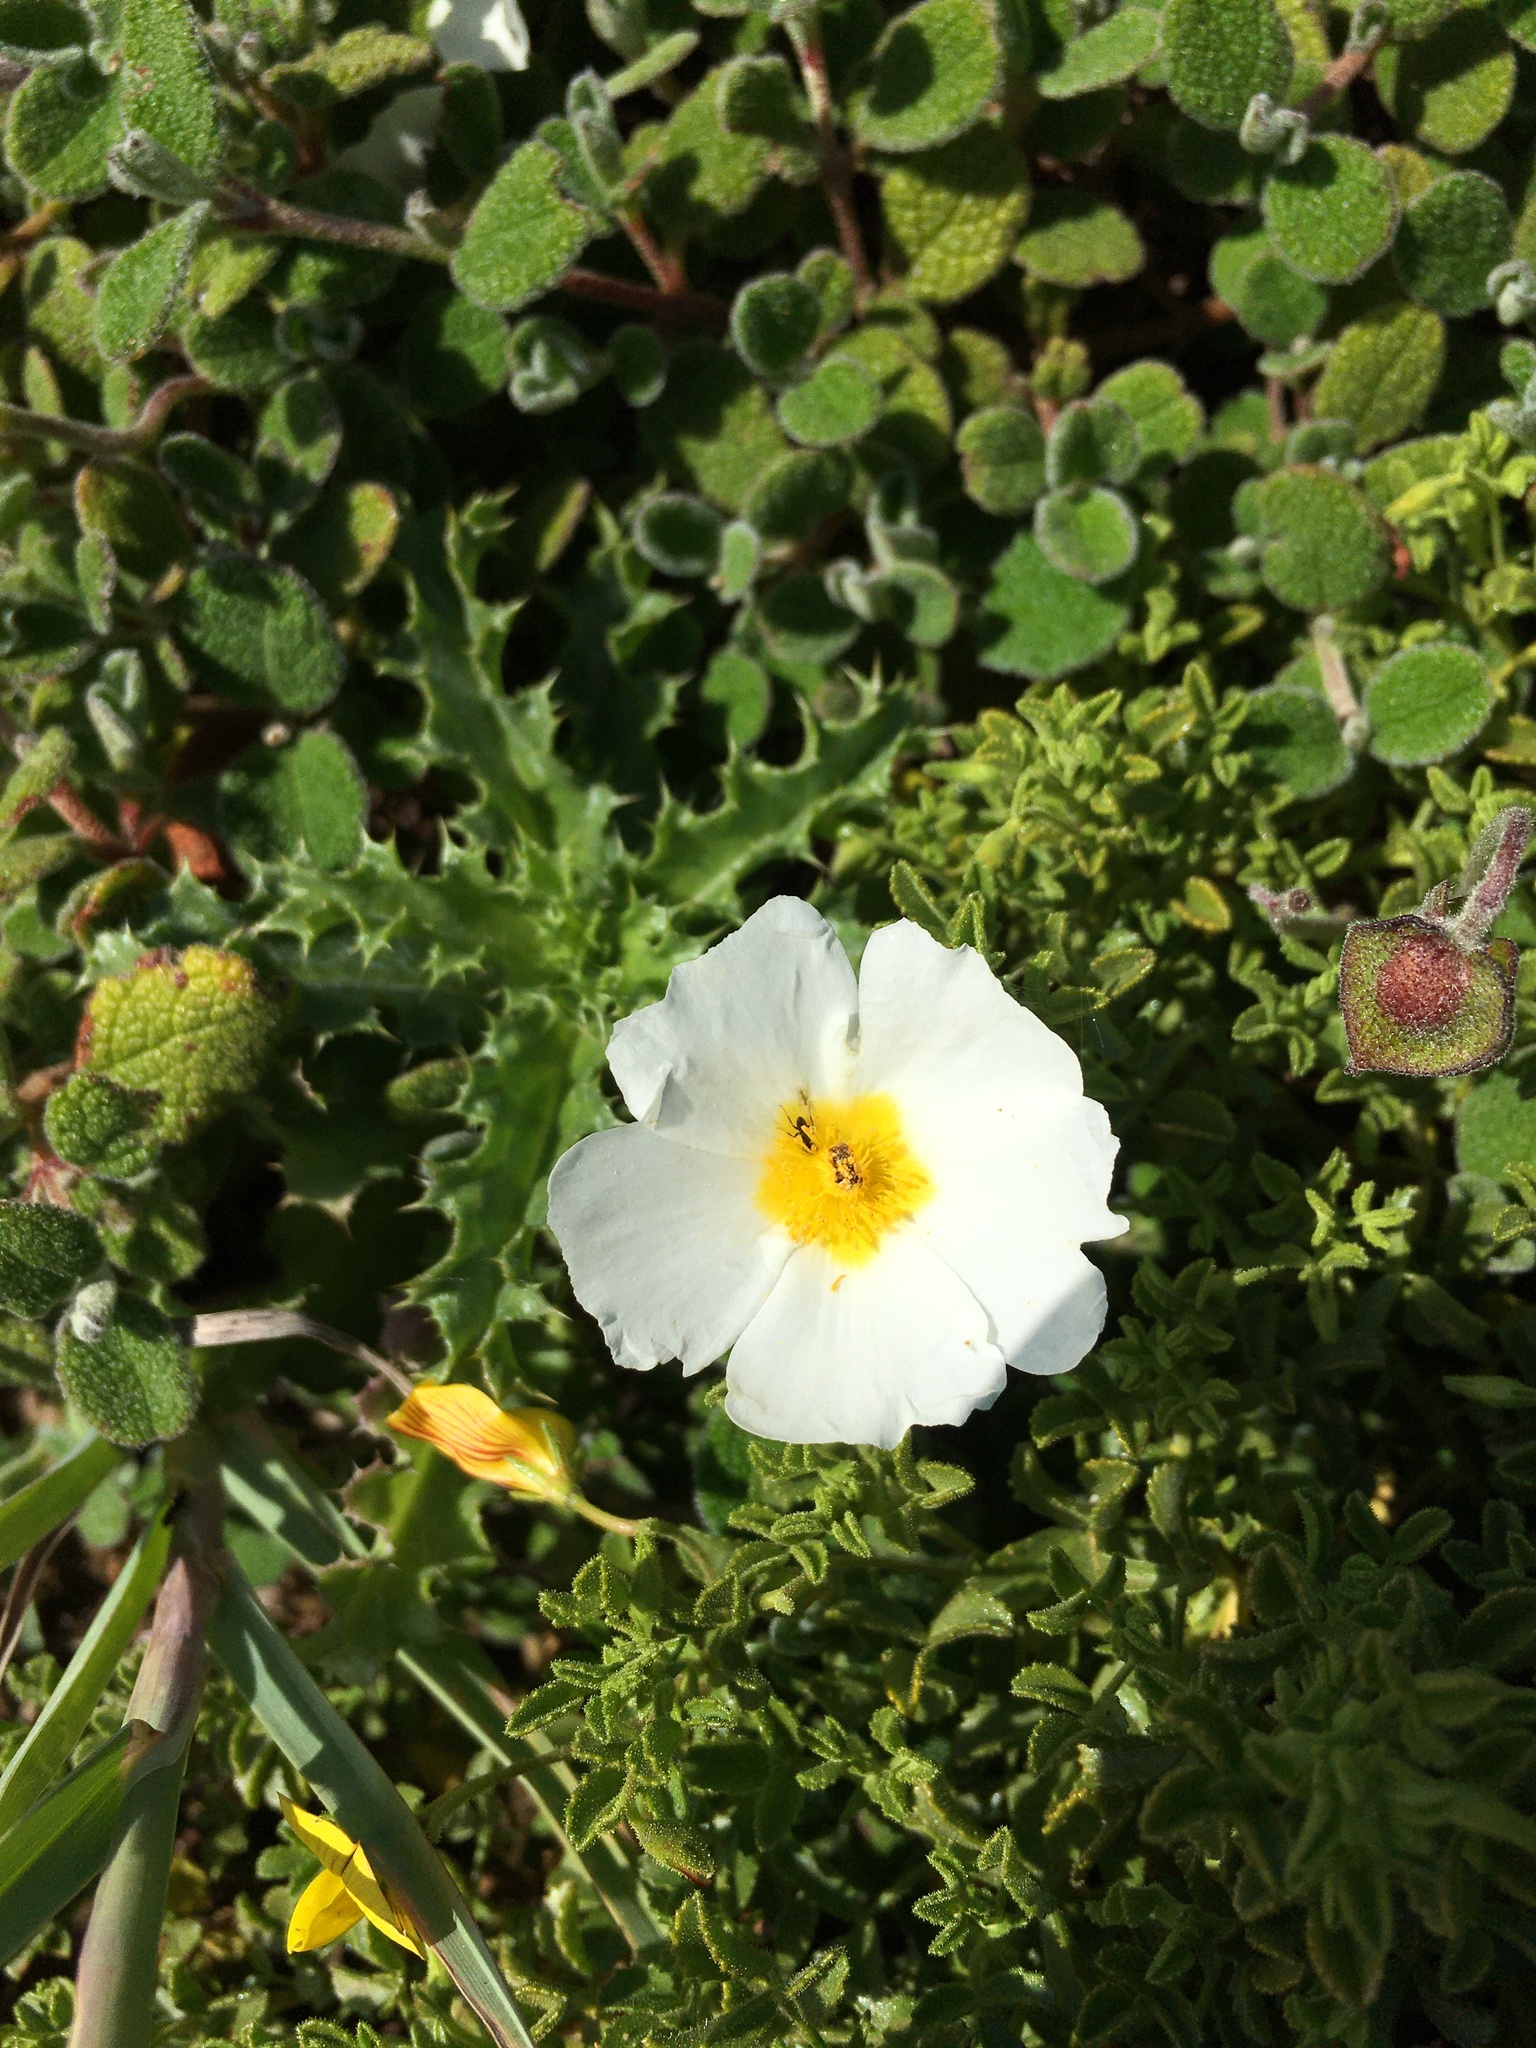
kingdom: Plantae
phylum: Tracheophyta
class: Magnoliopsida
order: Malvales
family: Cistaceae
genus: Cistus
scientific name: Cistus salviifolius
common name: Salvia cistus
